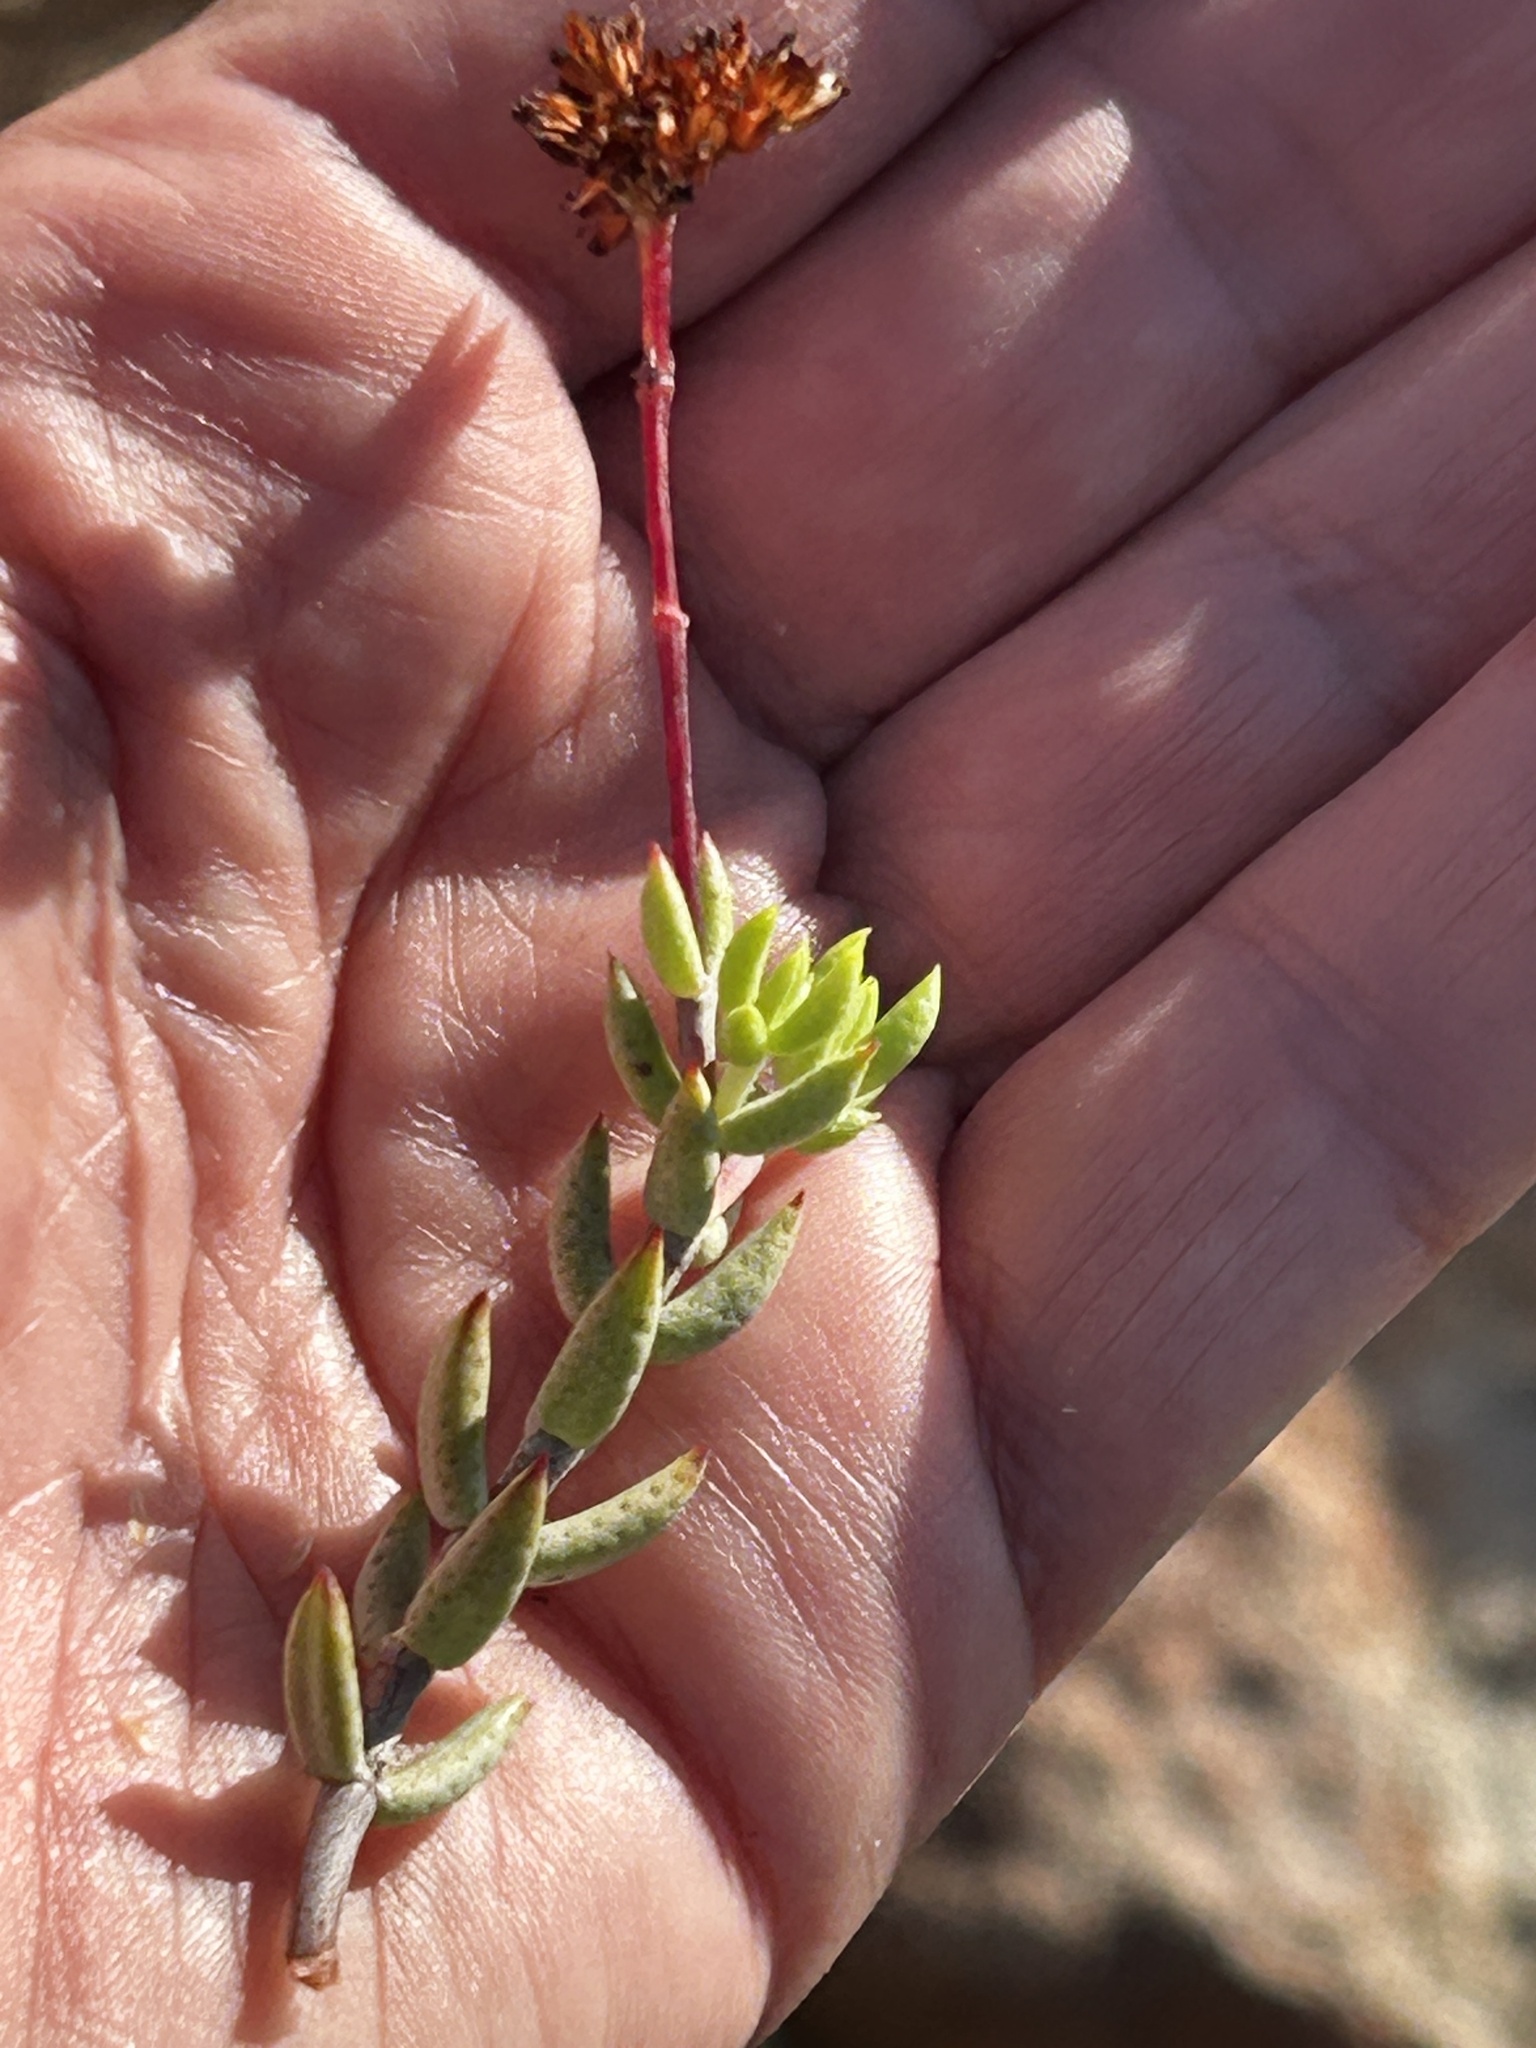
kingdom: Plantae
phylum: Tracheophyta
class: Magnoliopsida
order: Saxifragales
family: Crassulaceae
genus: Crassula
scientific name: Crassula subulata
